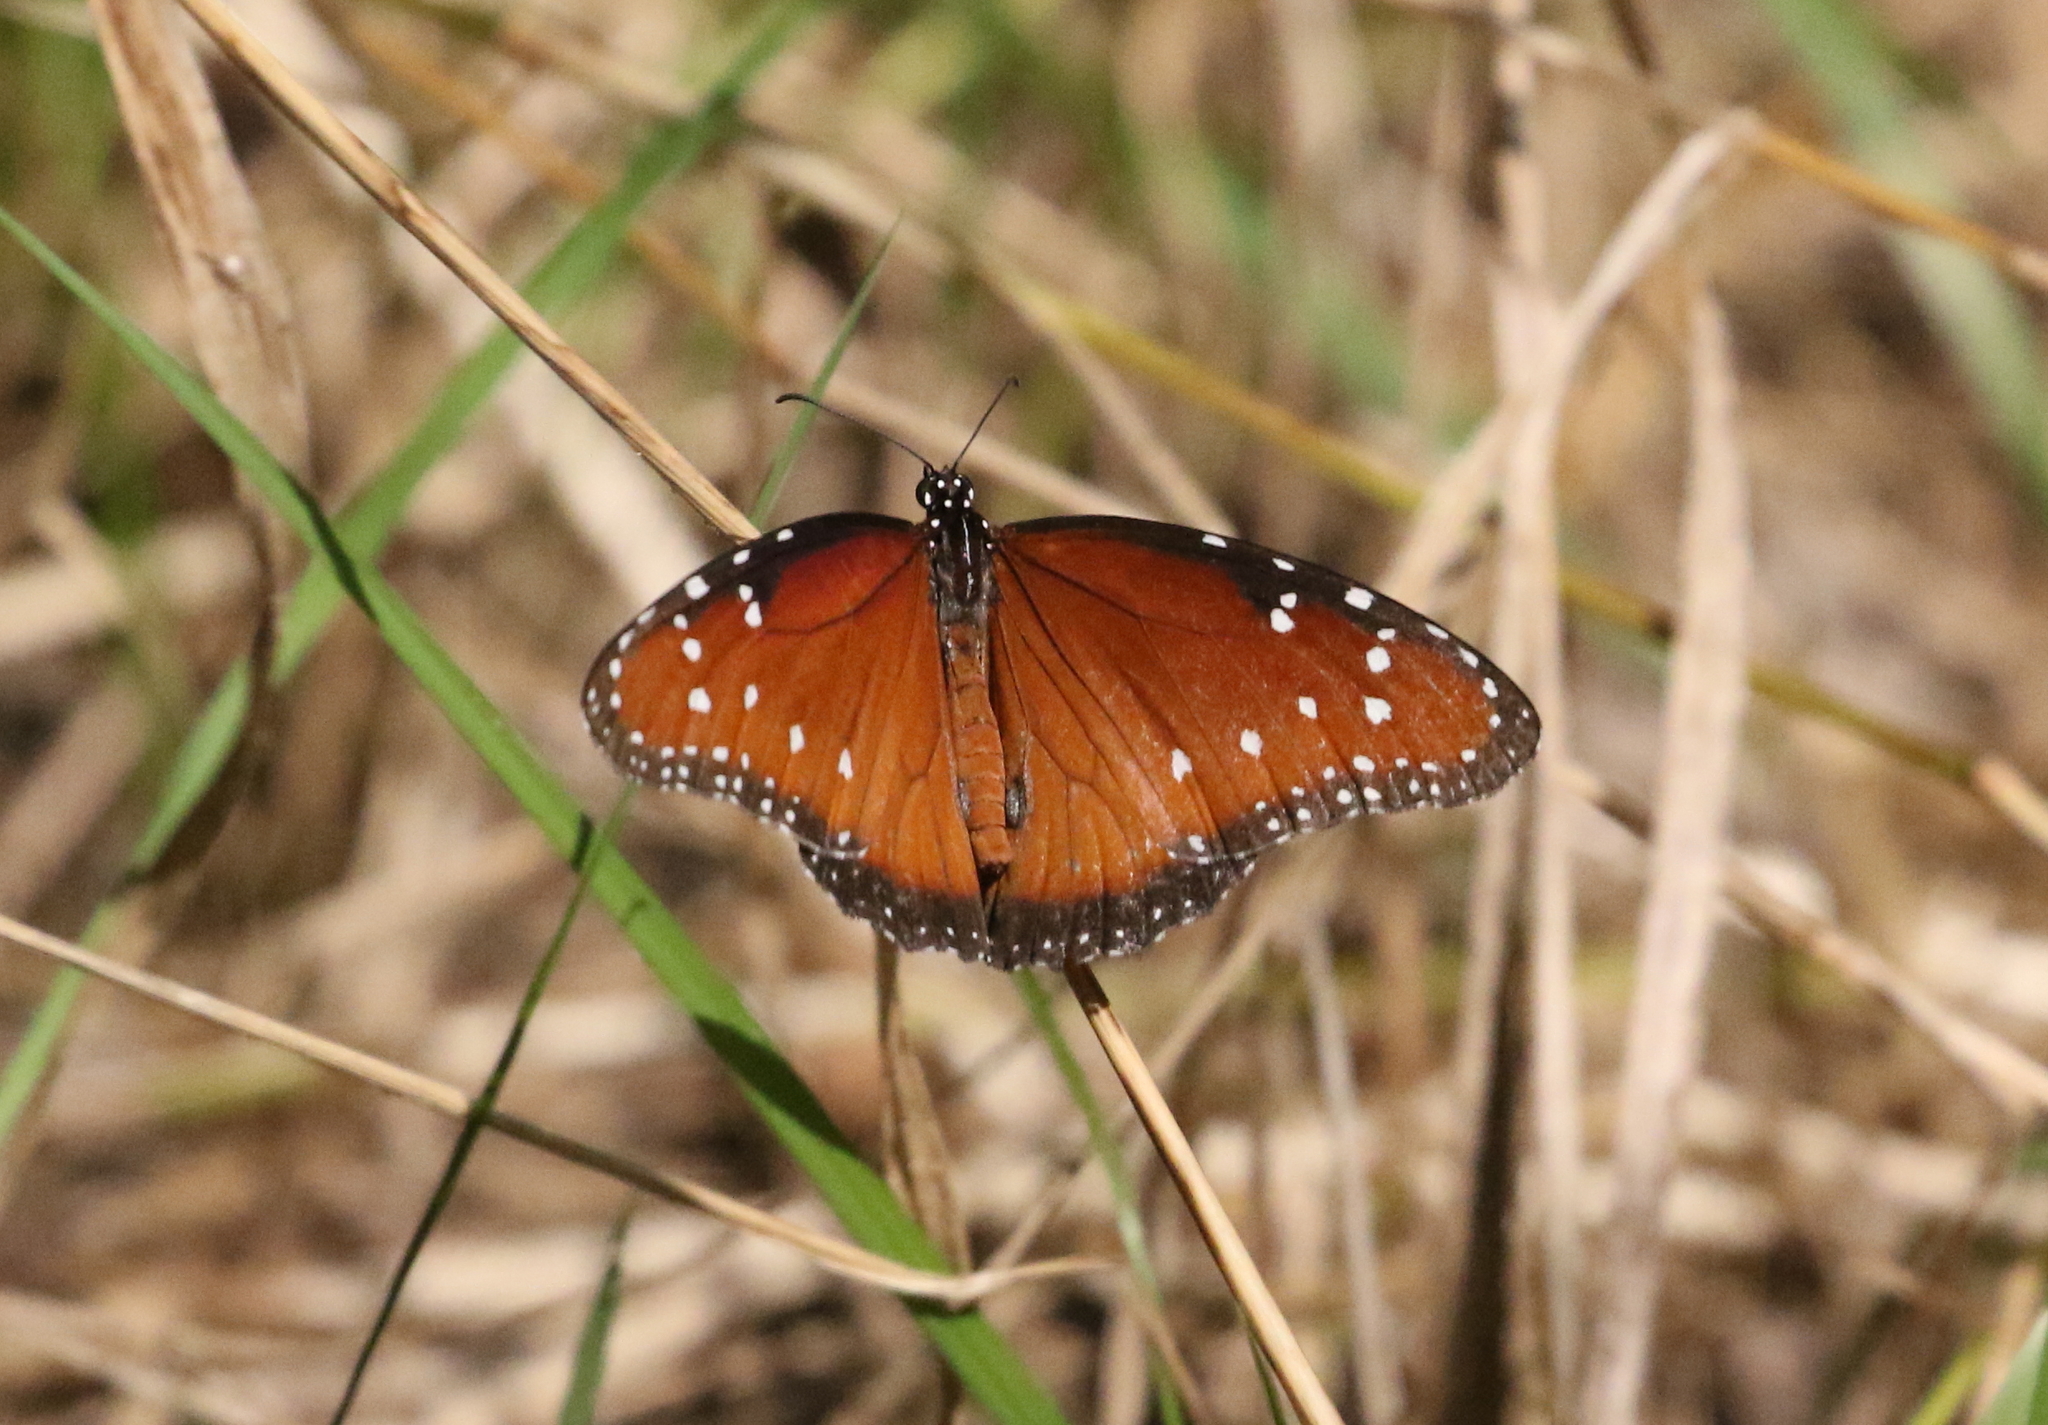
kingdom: Animalia
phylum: Arthropoda
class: Insecta
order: Lepidoptera
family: Nymphalidae
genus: Danaus
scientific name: Danaus gilippus
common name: Queen
